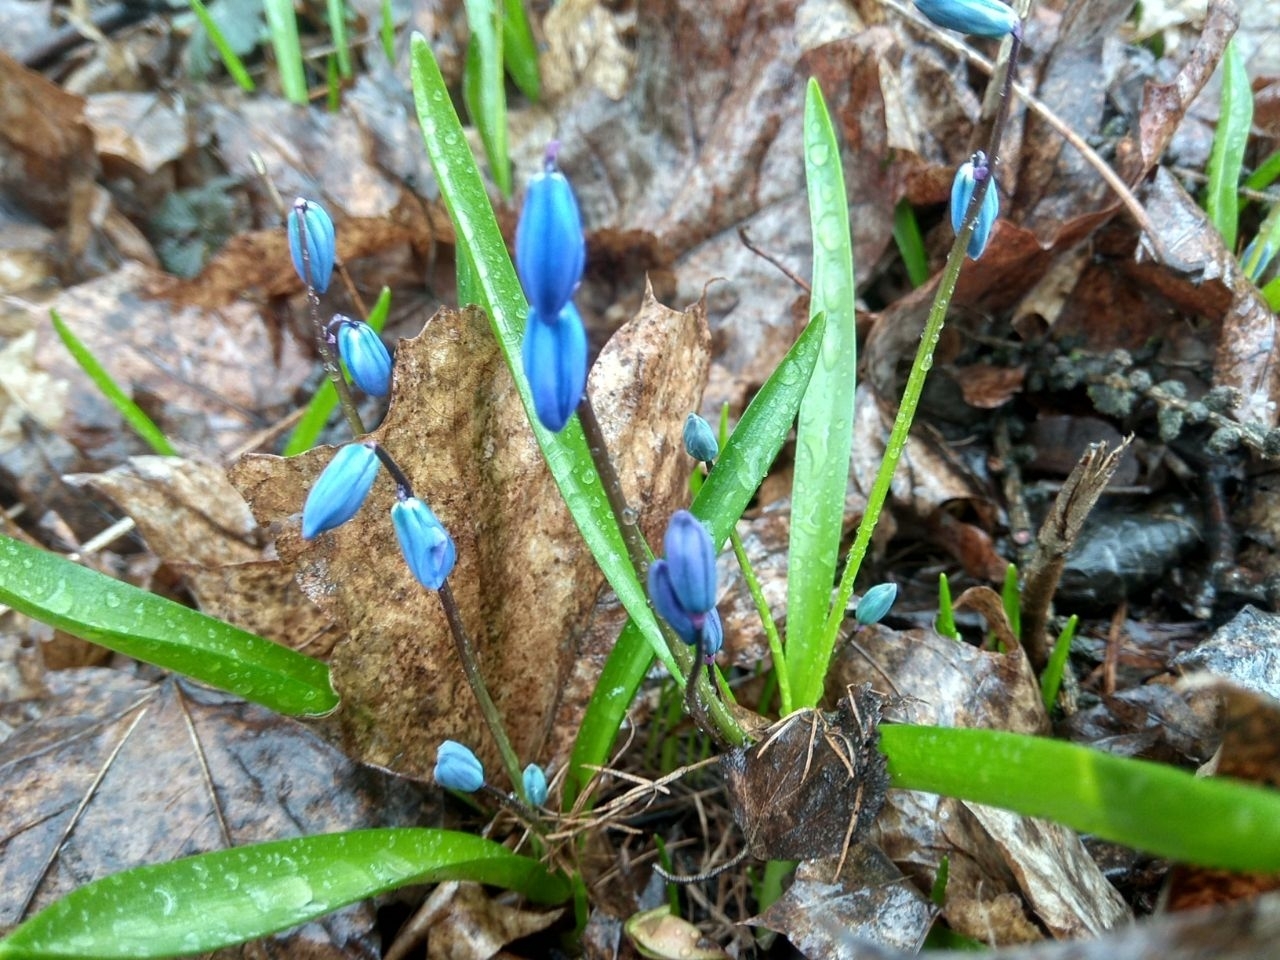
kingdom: Plantae
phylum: Tracheophyta
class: Liliopsida
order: Asparagales
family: Asparagaceae
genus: Scilla
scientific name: Scilla siberica
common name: Siberian squill
